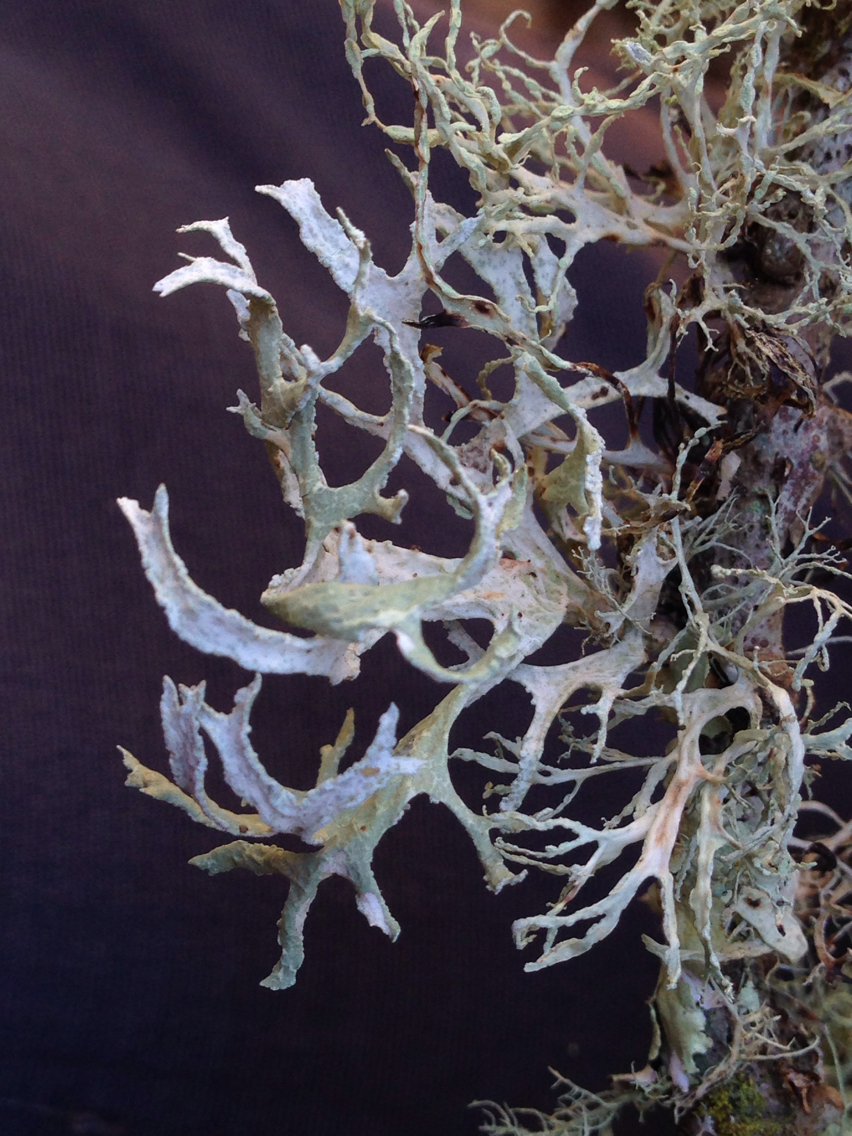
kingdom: Fungi
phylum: Ascomycota
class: Lecanoromycetes
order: Lecanorales
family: Parmeliaceae
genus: Evernia
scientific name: Evernia prunastri
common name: Oak moss
